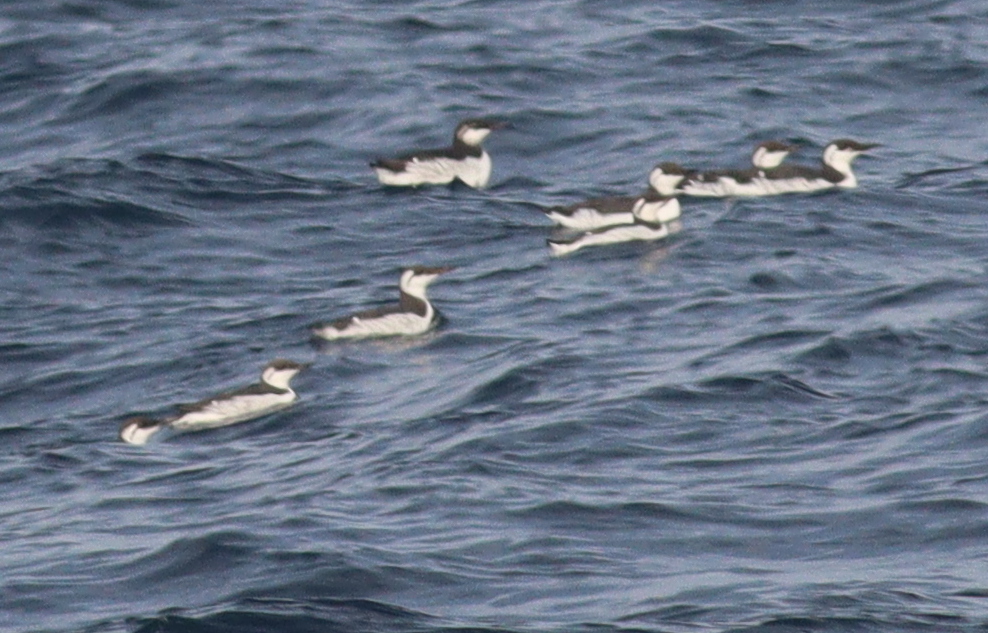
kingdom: Animalia
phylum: Chordata
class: Aves
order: Charadriiformes
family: Alcidae
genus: Uria
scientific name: Uria aalge
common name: Common murre
